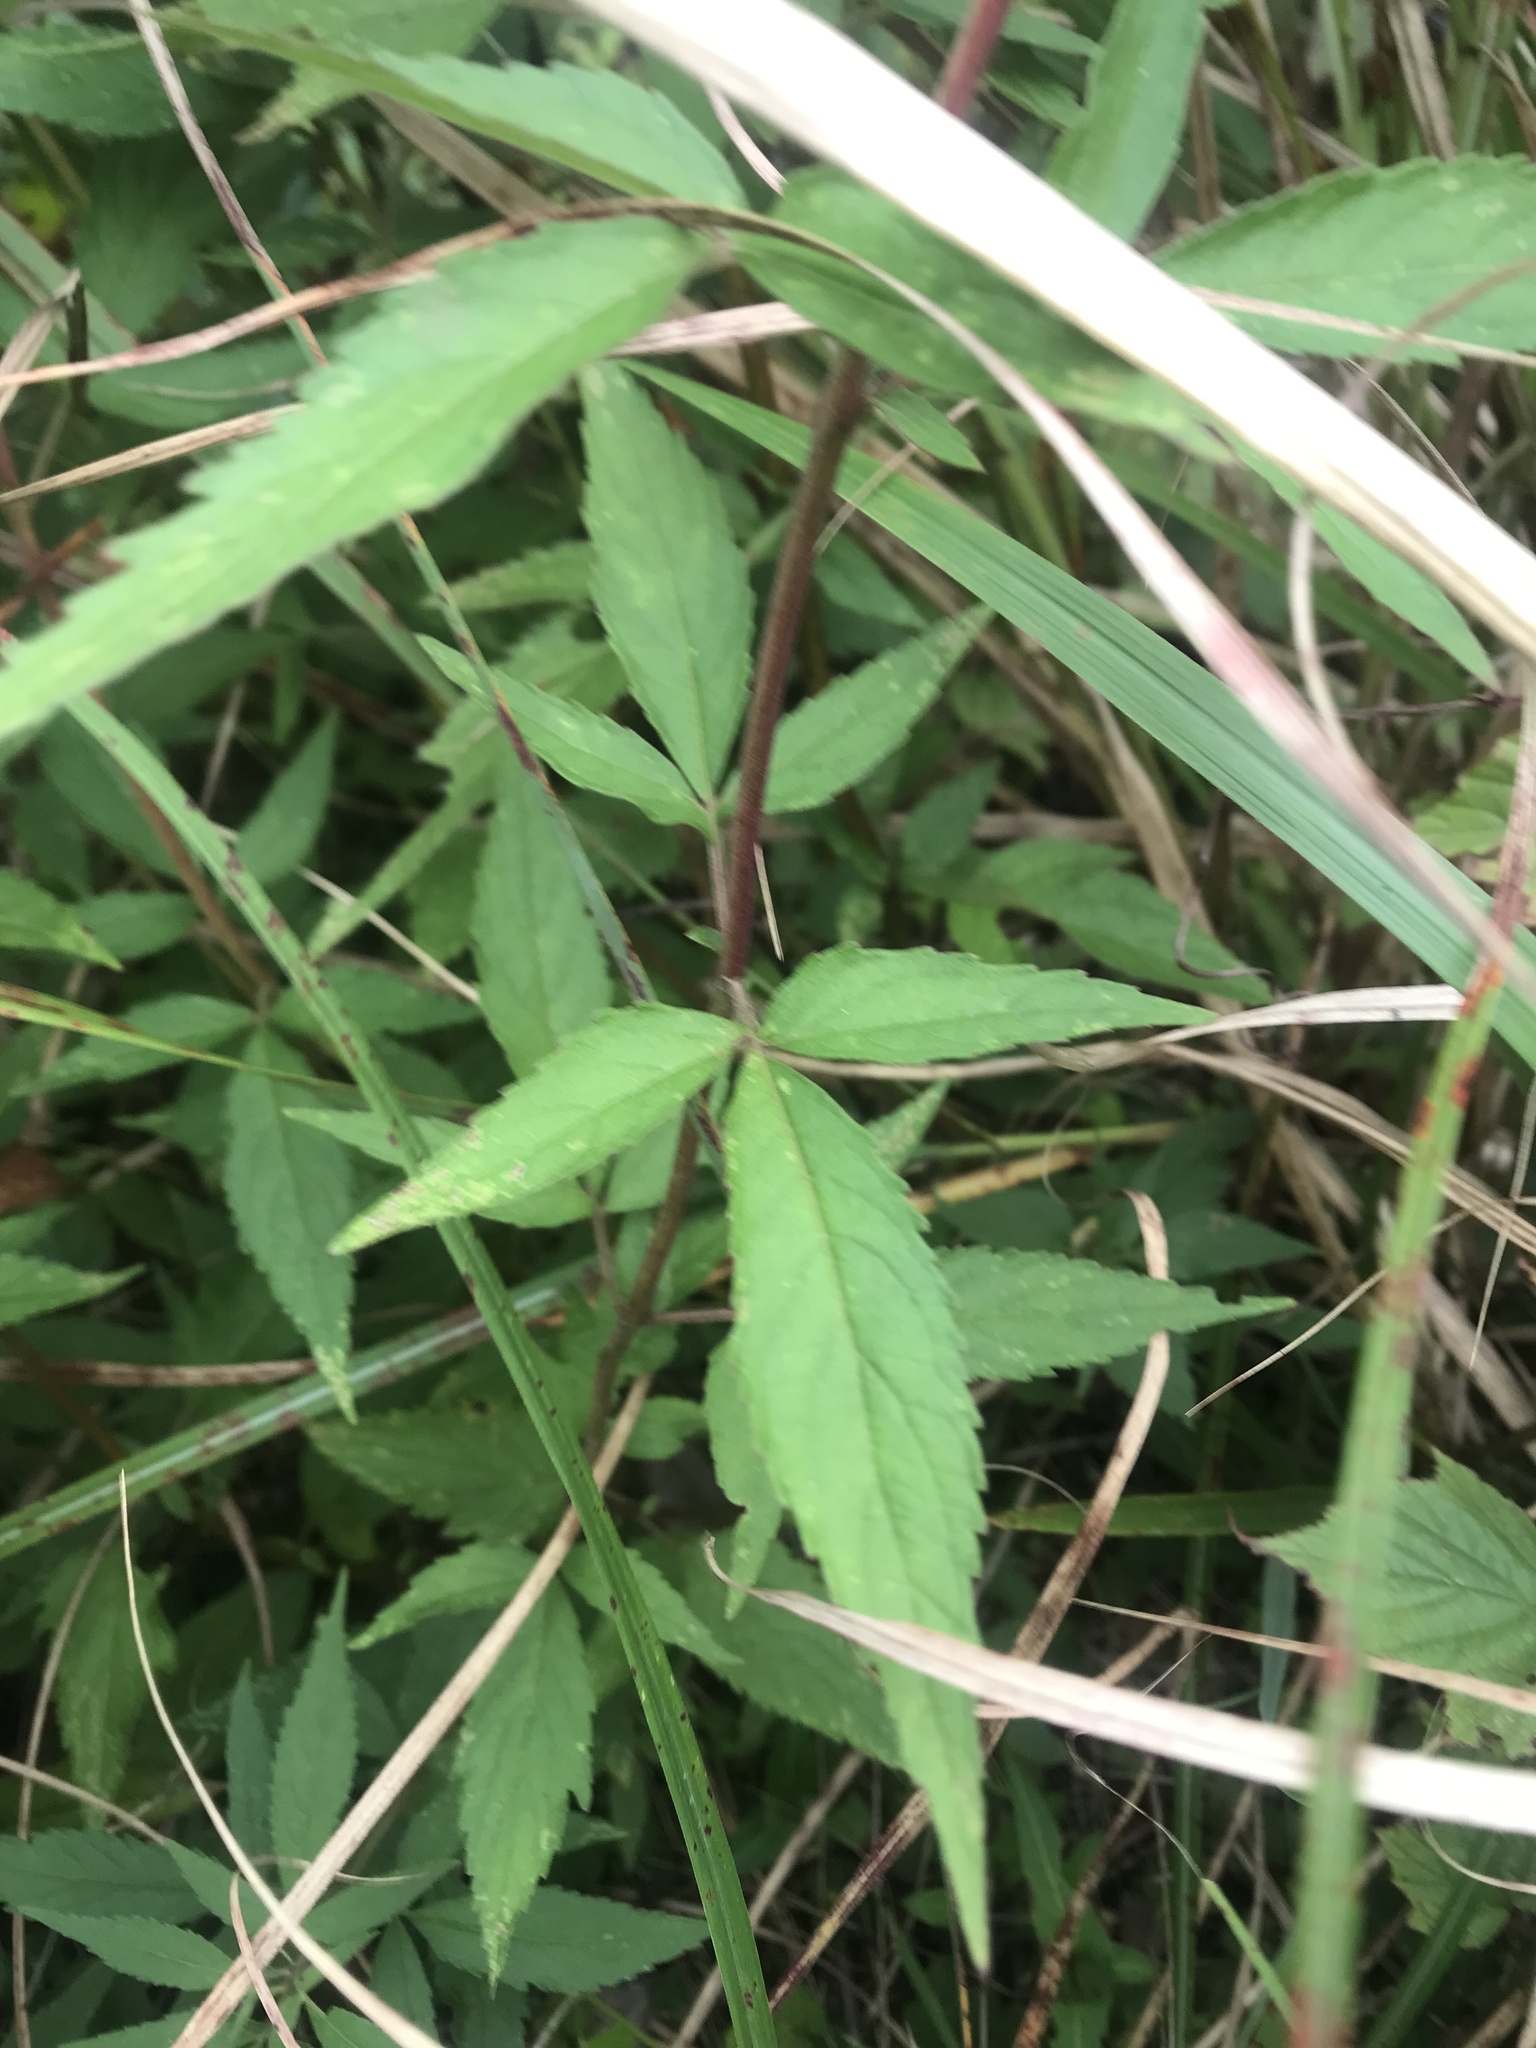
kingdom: Plantae
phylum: Tracheophyta
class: Magnoliopsida
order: Asterales
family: Asteraceae
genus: Eupatorium
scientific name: Eupatorium formosanum
